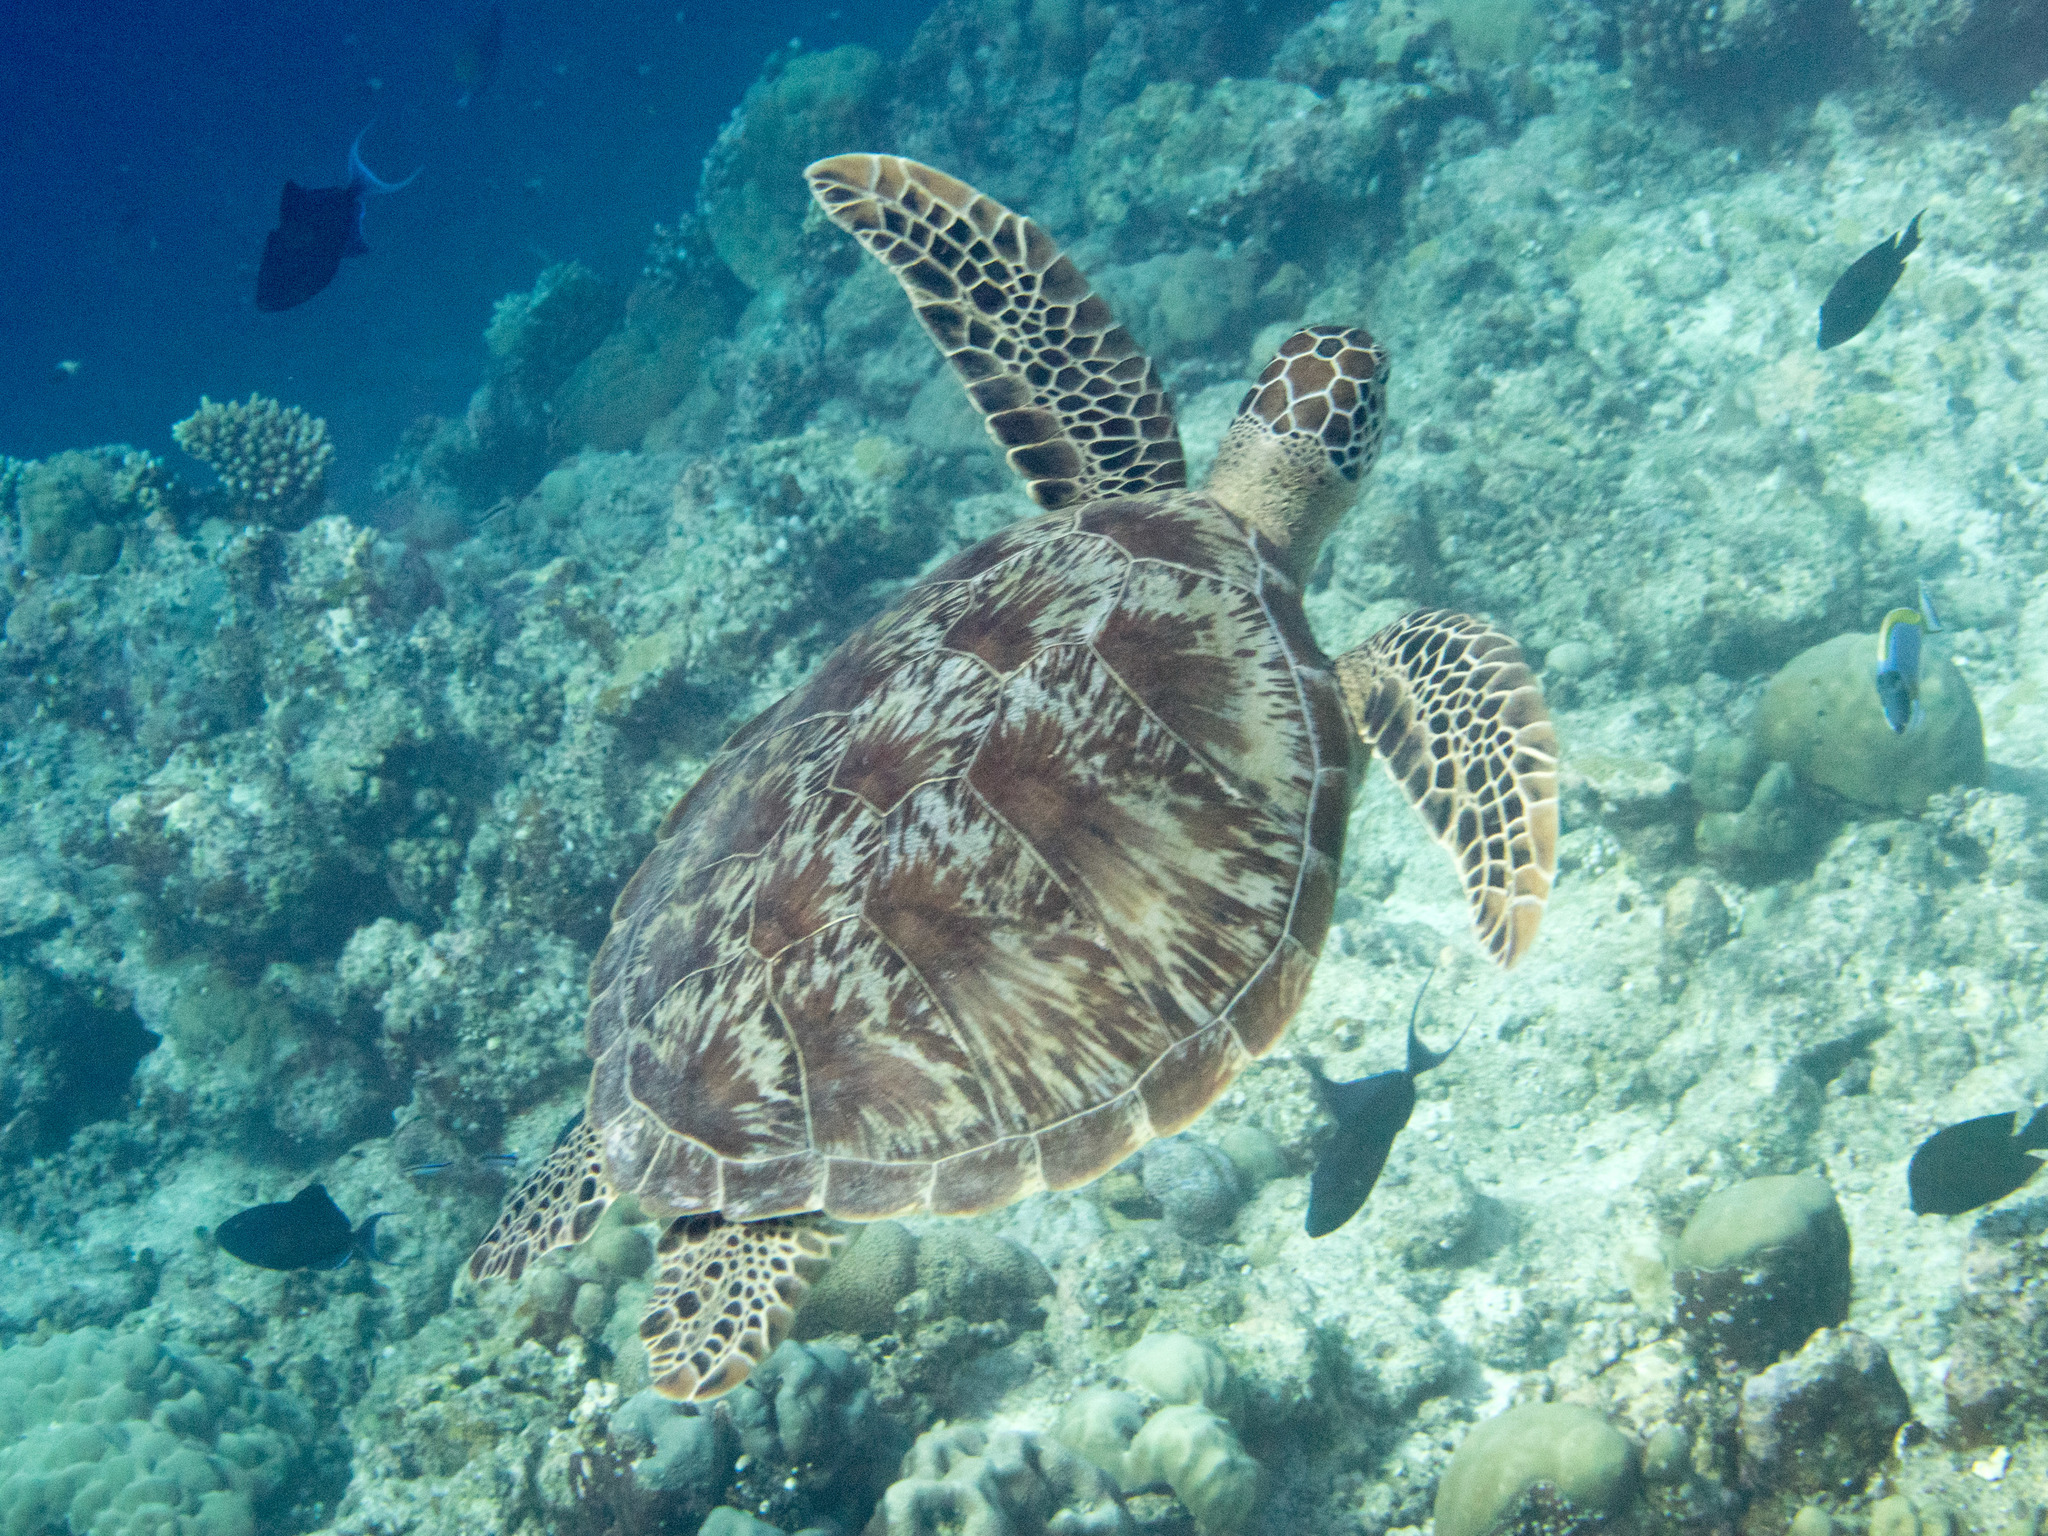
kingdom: Animalia
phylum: Chordata
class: Testudines
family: Cheloniidae
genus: Chelonia
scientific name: Chelonia mydas
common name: Green turtle
